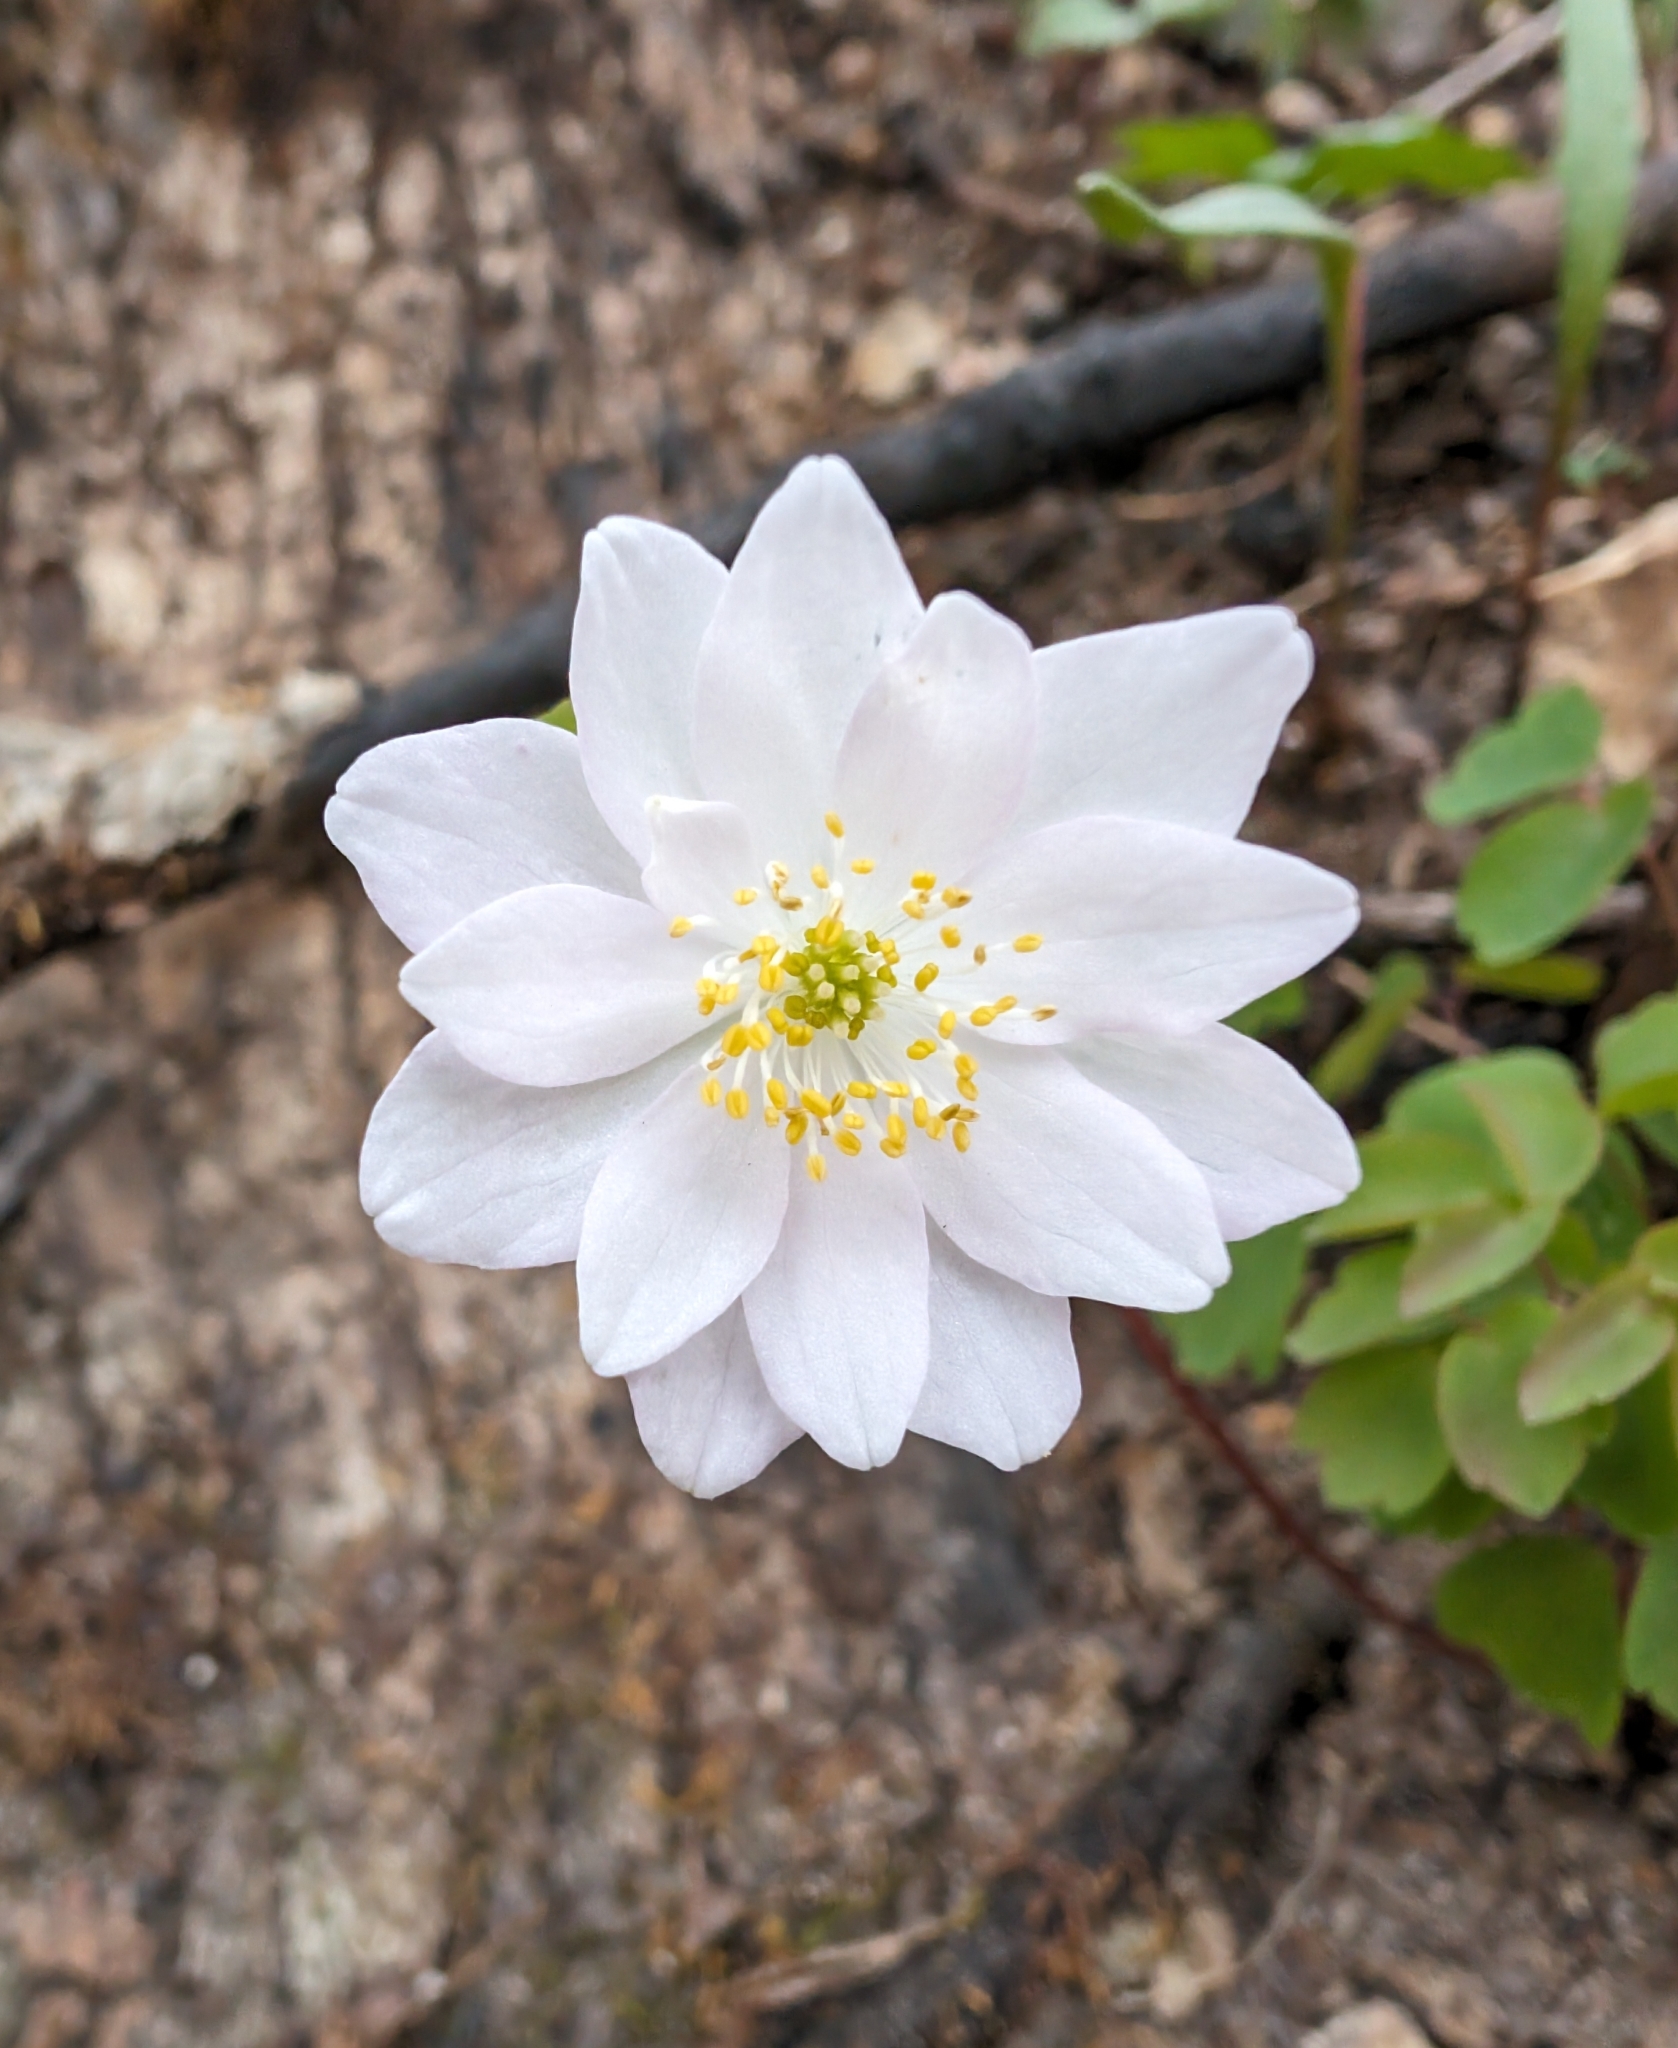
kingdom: Plantae
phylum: Tracheophyta
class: Magnoliopsida
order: Ranunculales
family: Ranunculaceae
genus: Thalictrum
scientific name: Thalictrum thalictroides
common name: Rue-anemone
